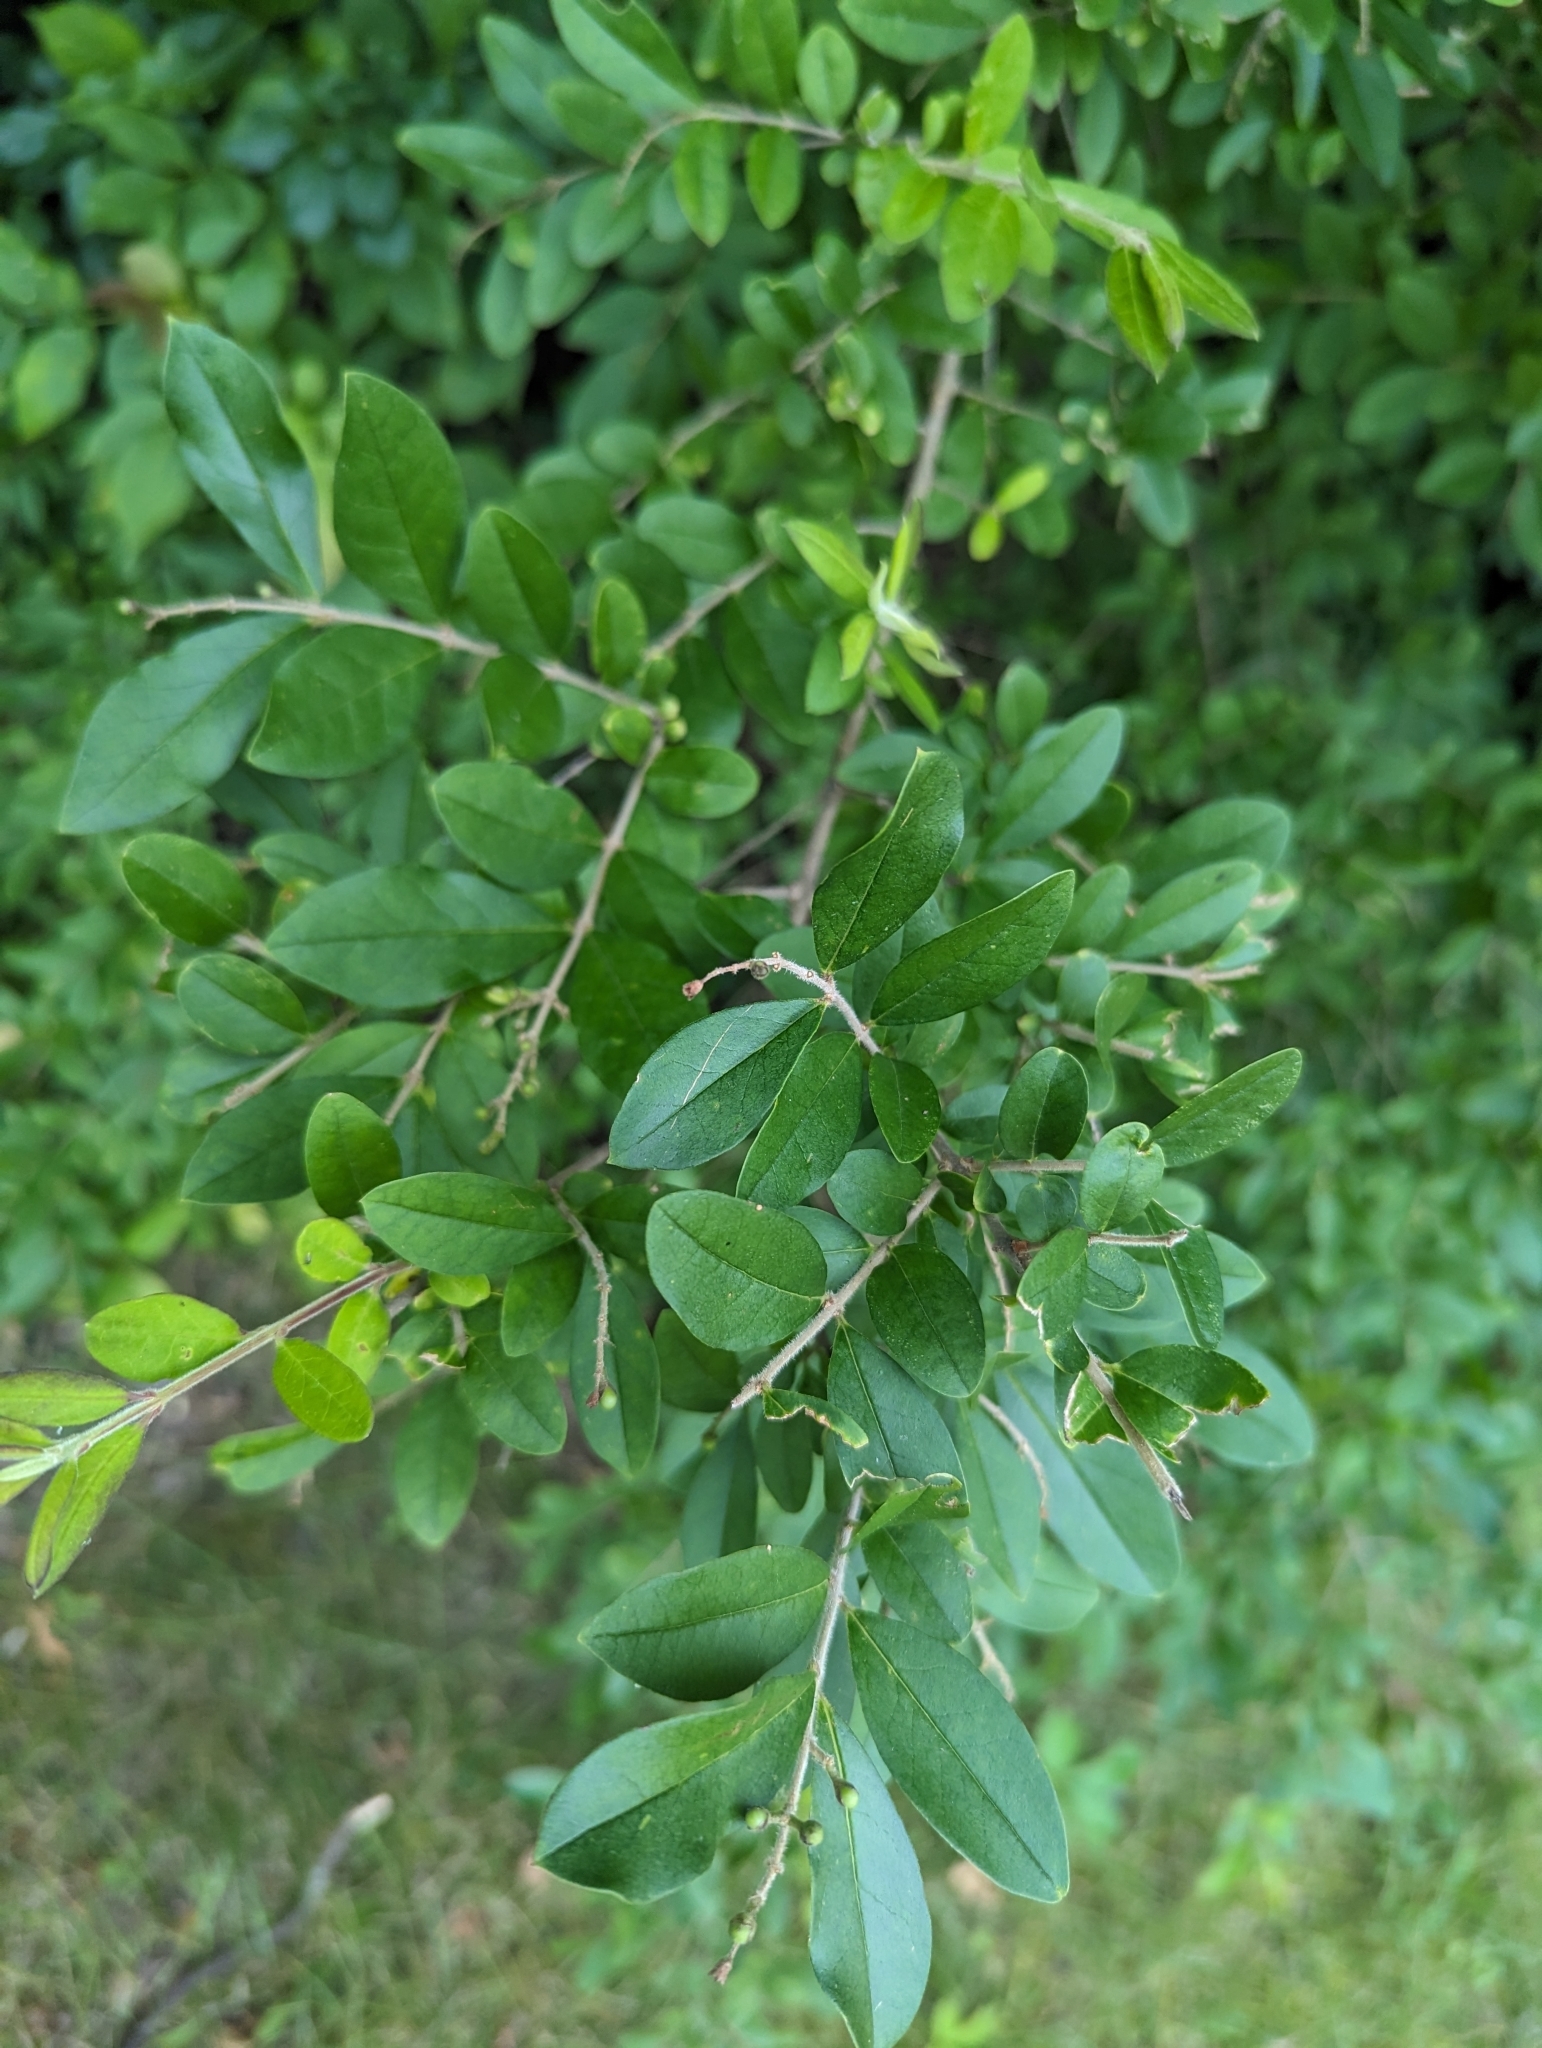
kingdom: Plantae
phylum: Tracheophyta
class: Magnoliopsida
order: Lamiales
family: Oleaceae
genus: Ligustrum
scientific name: Ligustrum obtusifolium
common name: Border privet
